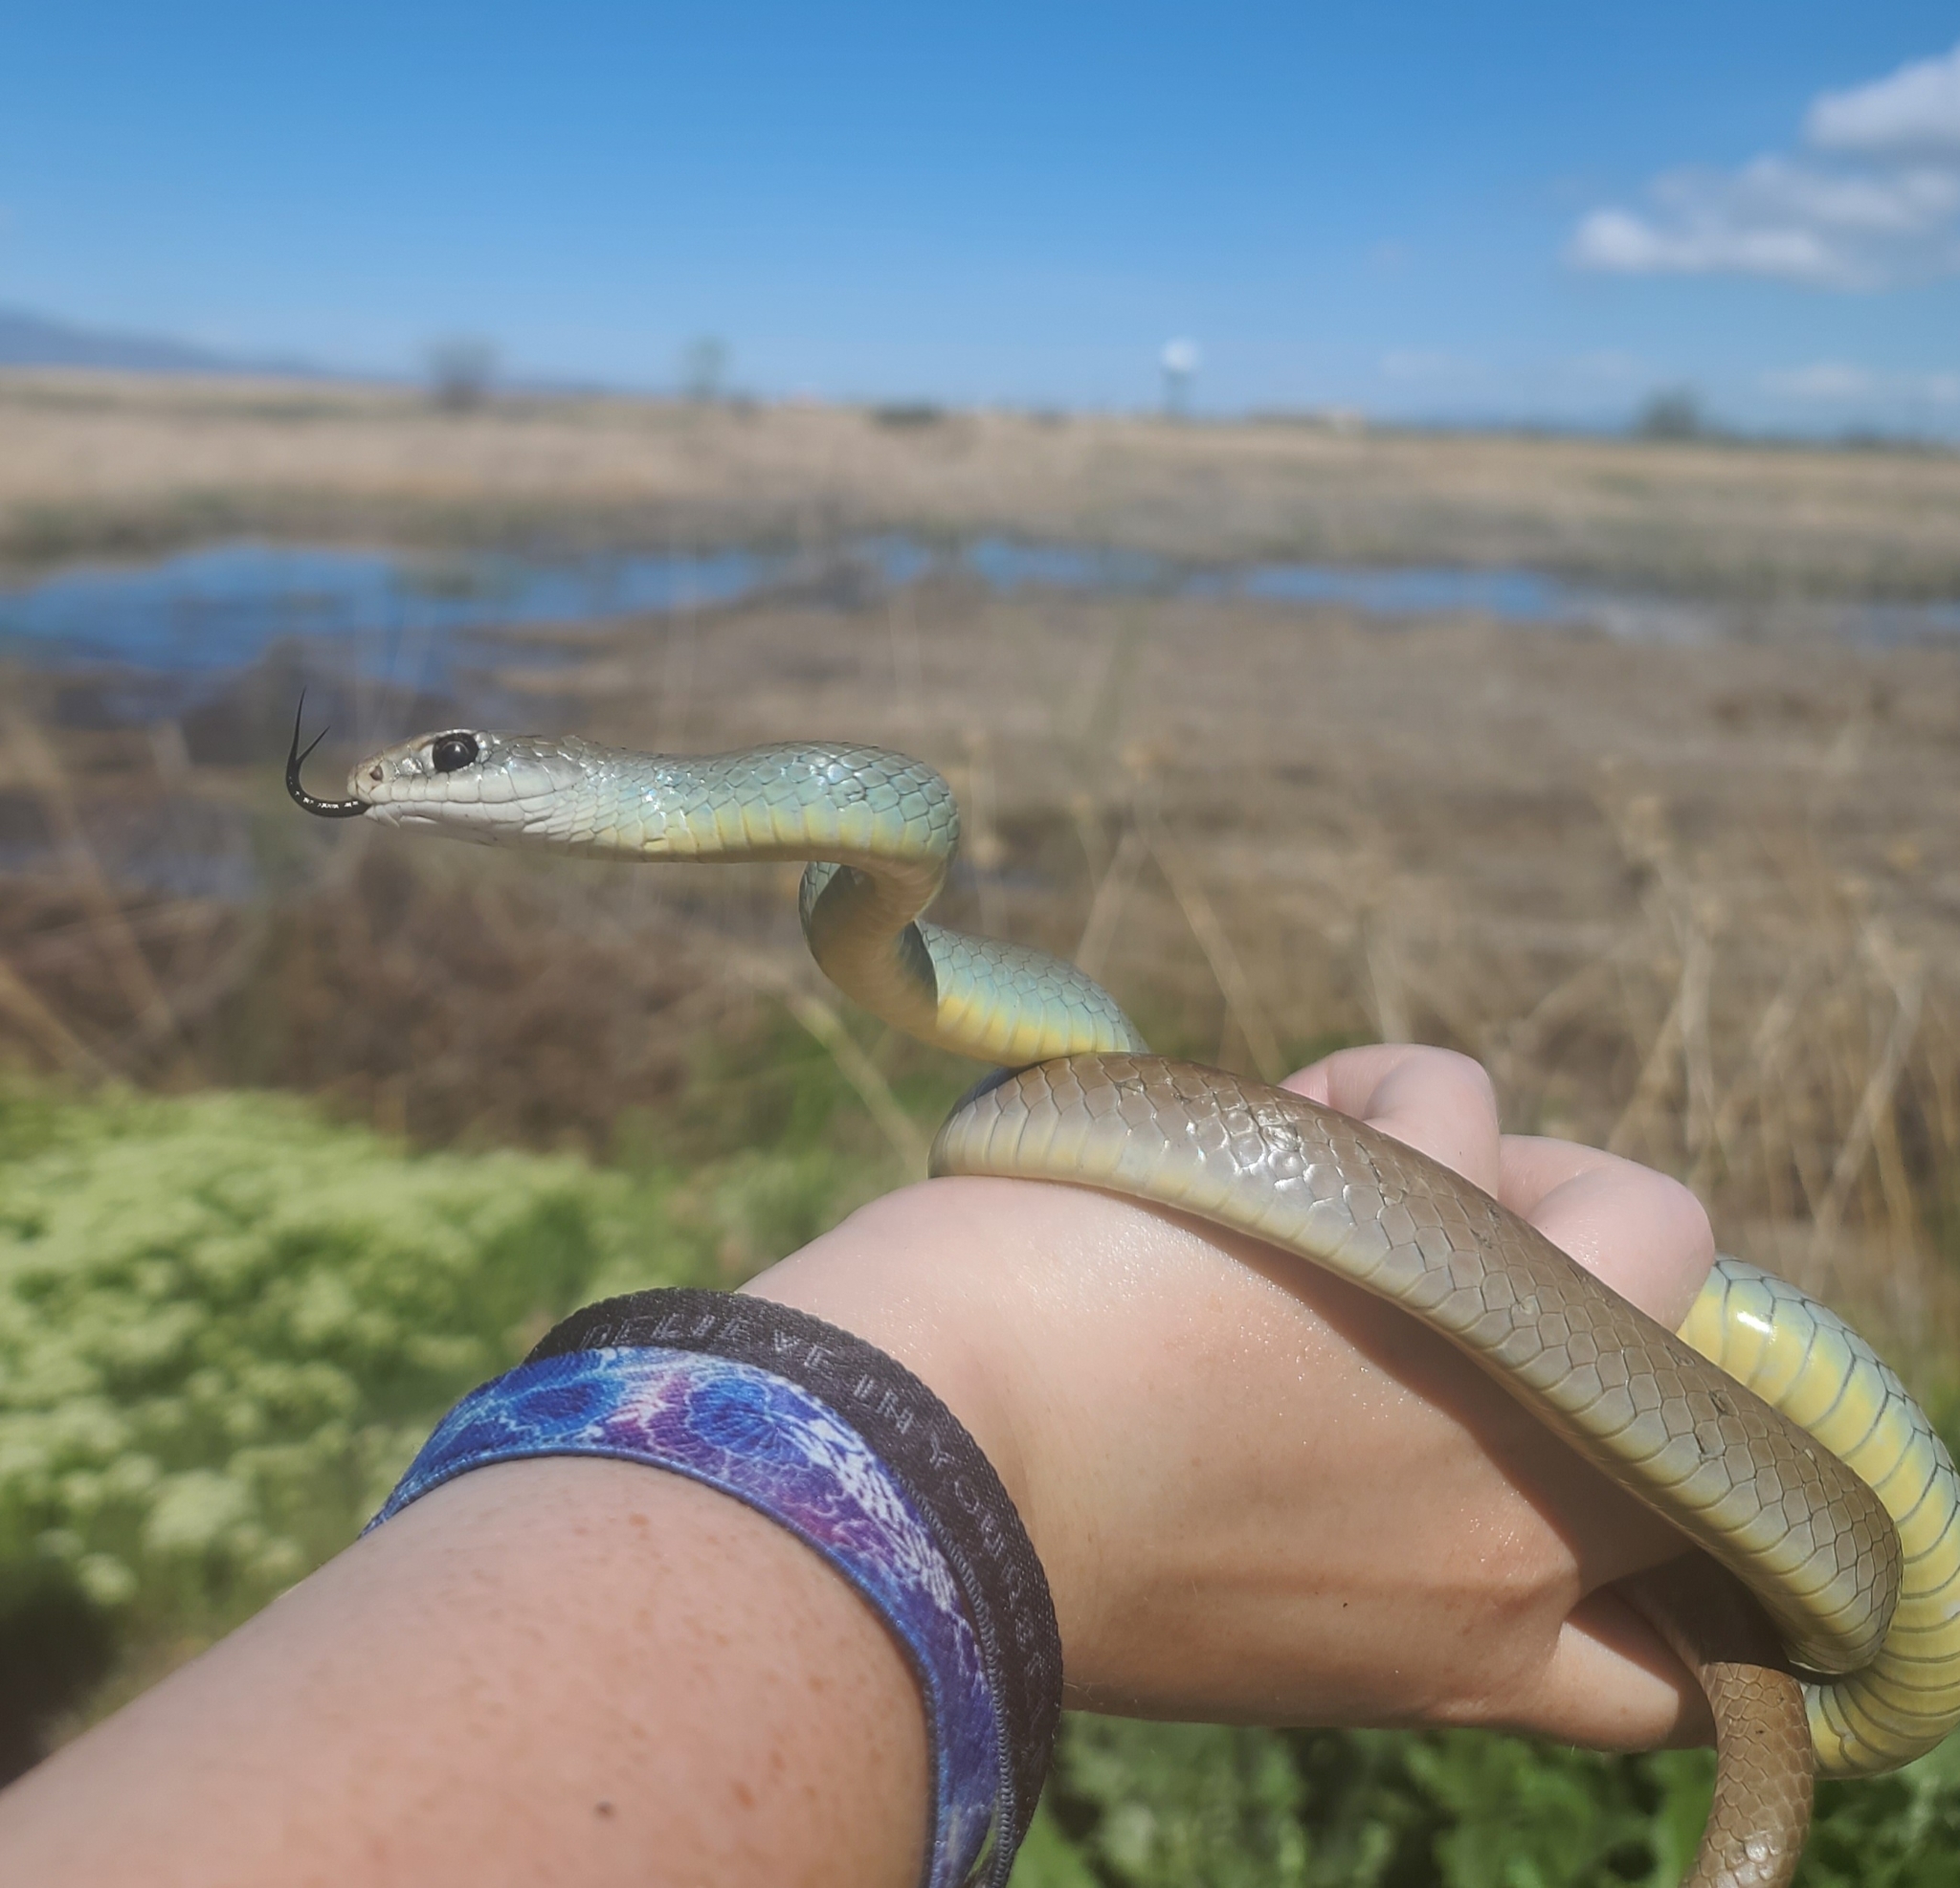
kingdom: Animalia
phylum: Chordata
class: Squamata
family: Colubridae
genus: Coluber
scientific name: Coluber constrictor
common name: Eastern racer
